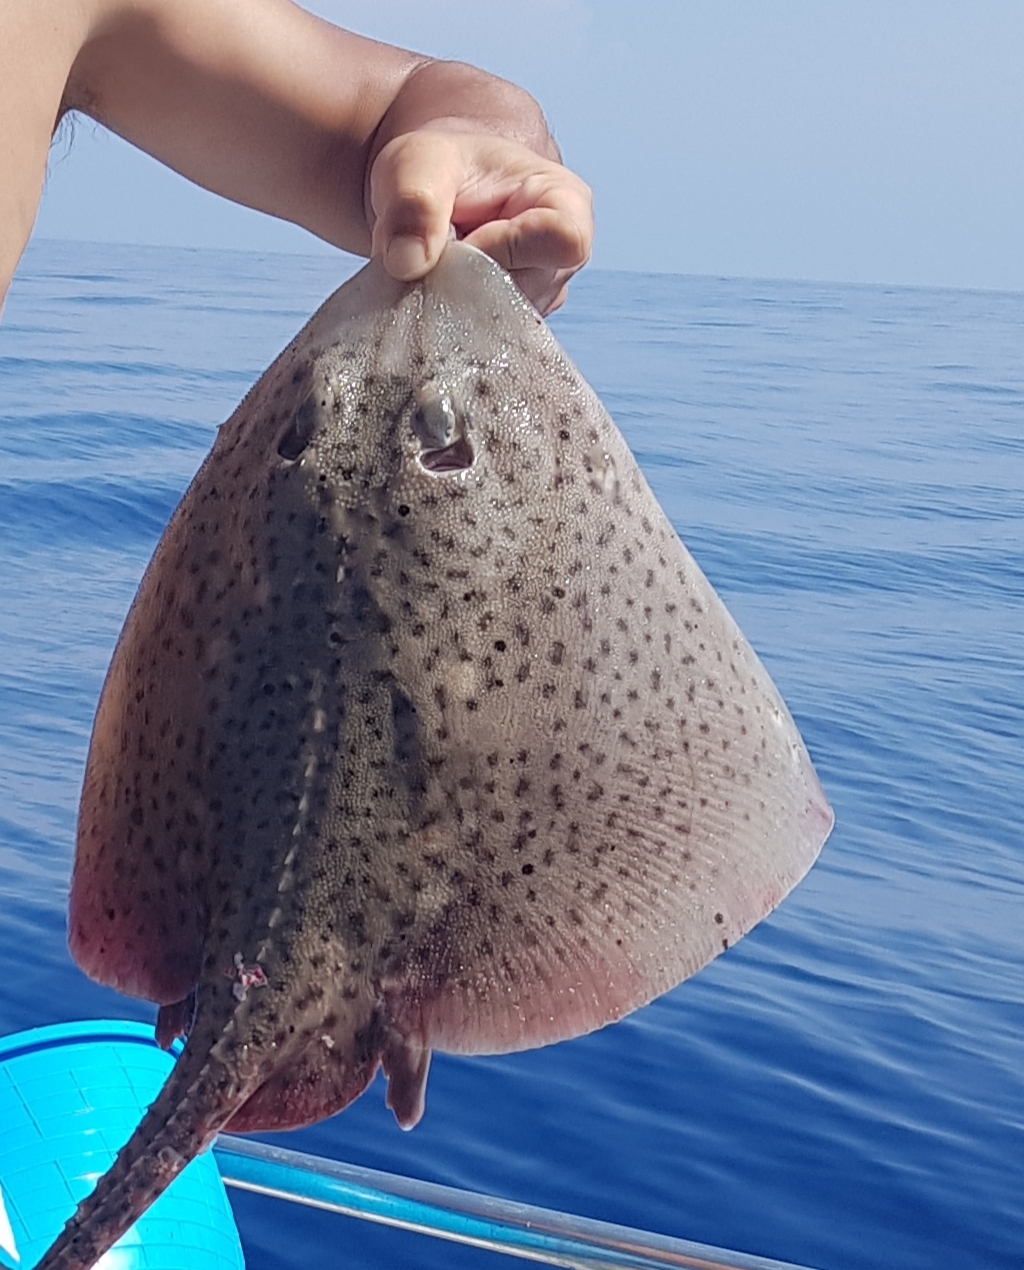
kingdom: Animalia
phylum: Chordata
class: Elasmobranchii
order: Rajiformes
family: Rajidae
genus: Raja
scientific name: Raja asterias
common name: Starry ray
